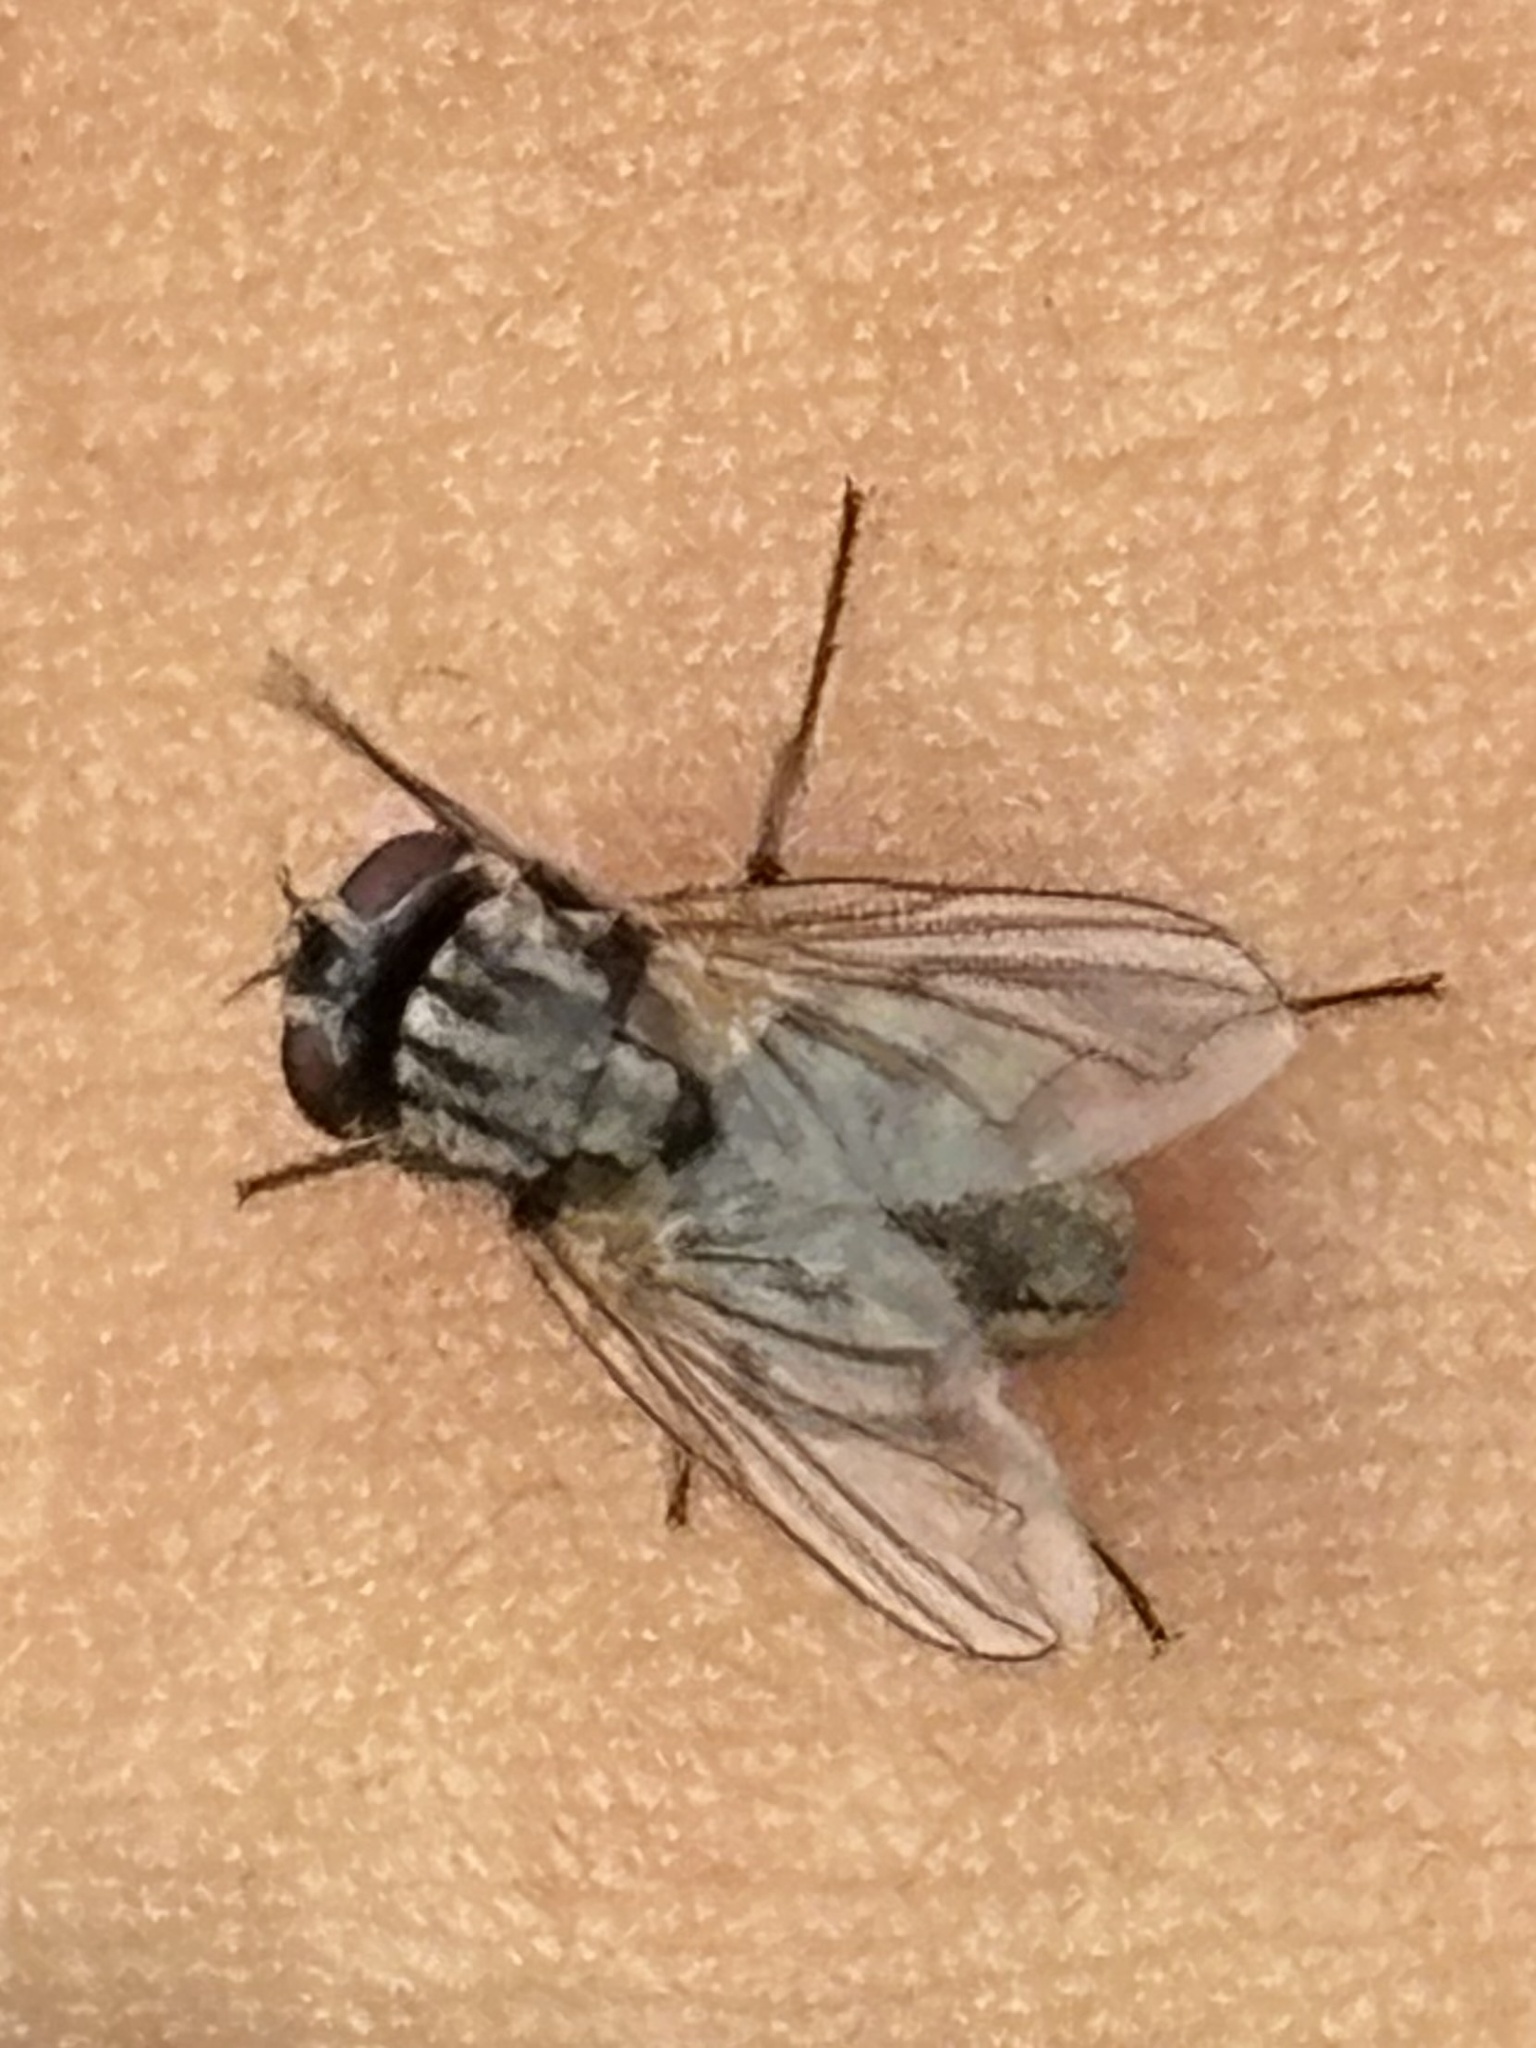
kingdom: Animalia
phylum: Arthropoda
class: Insecta
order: Diptera
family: Muscidae
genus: Musca
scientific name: Musca domestica
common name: House fly
